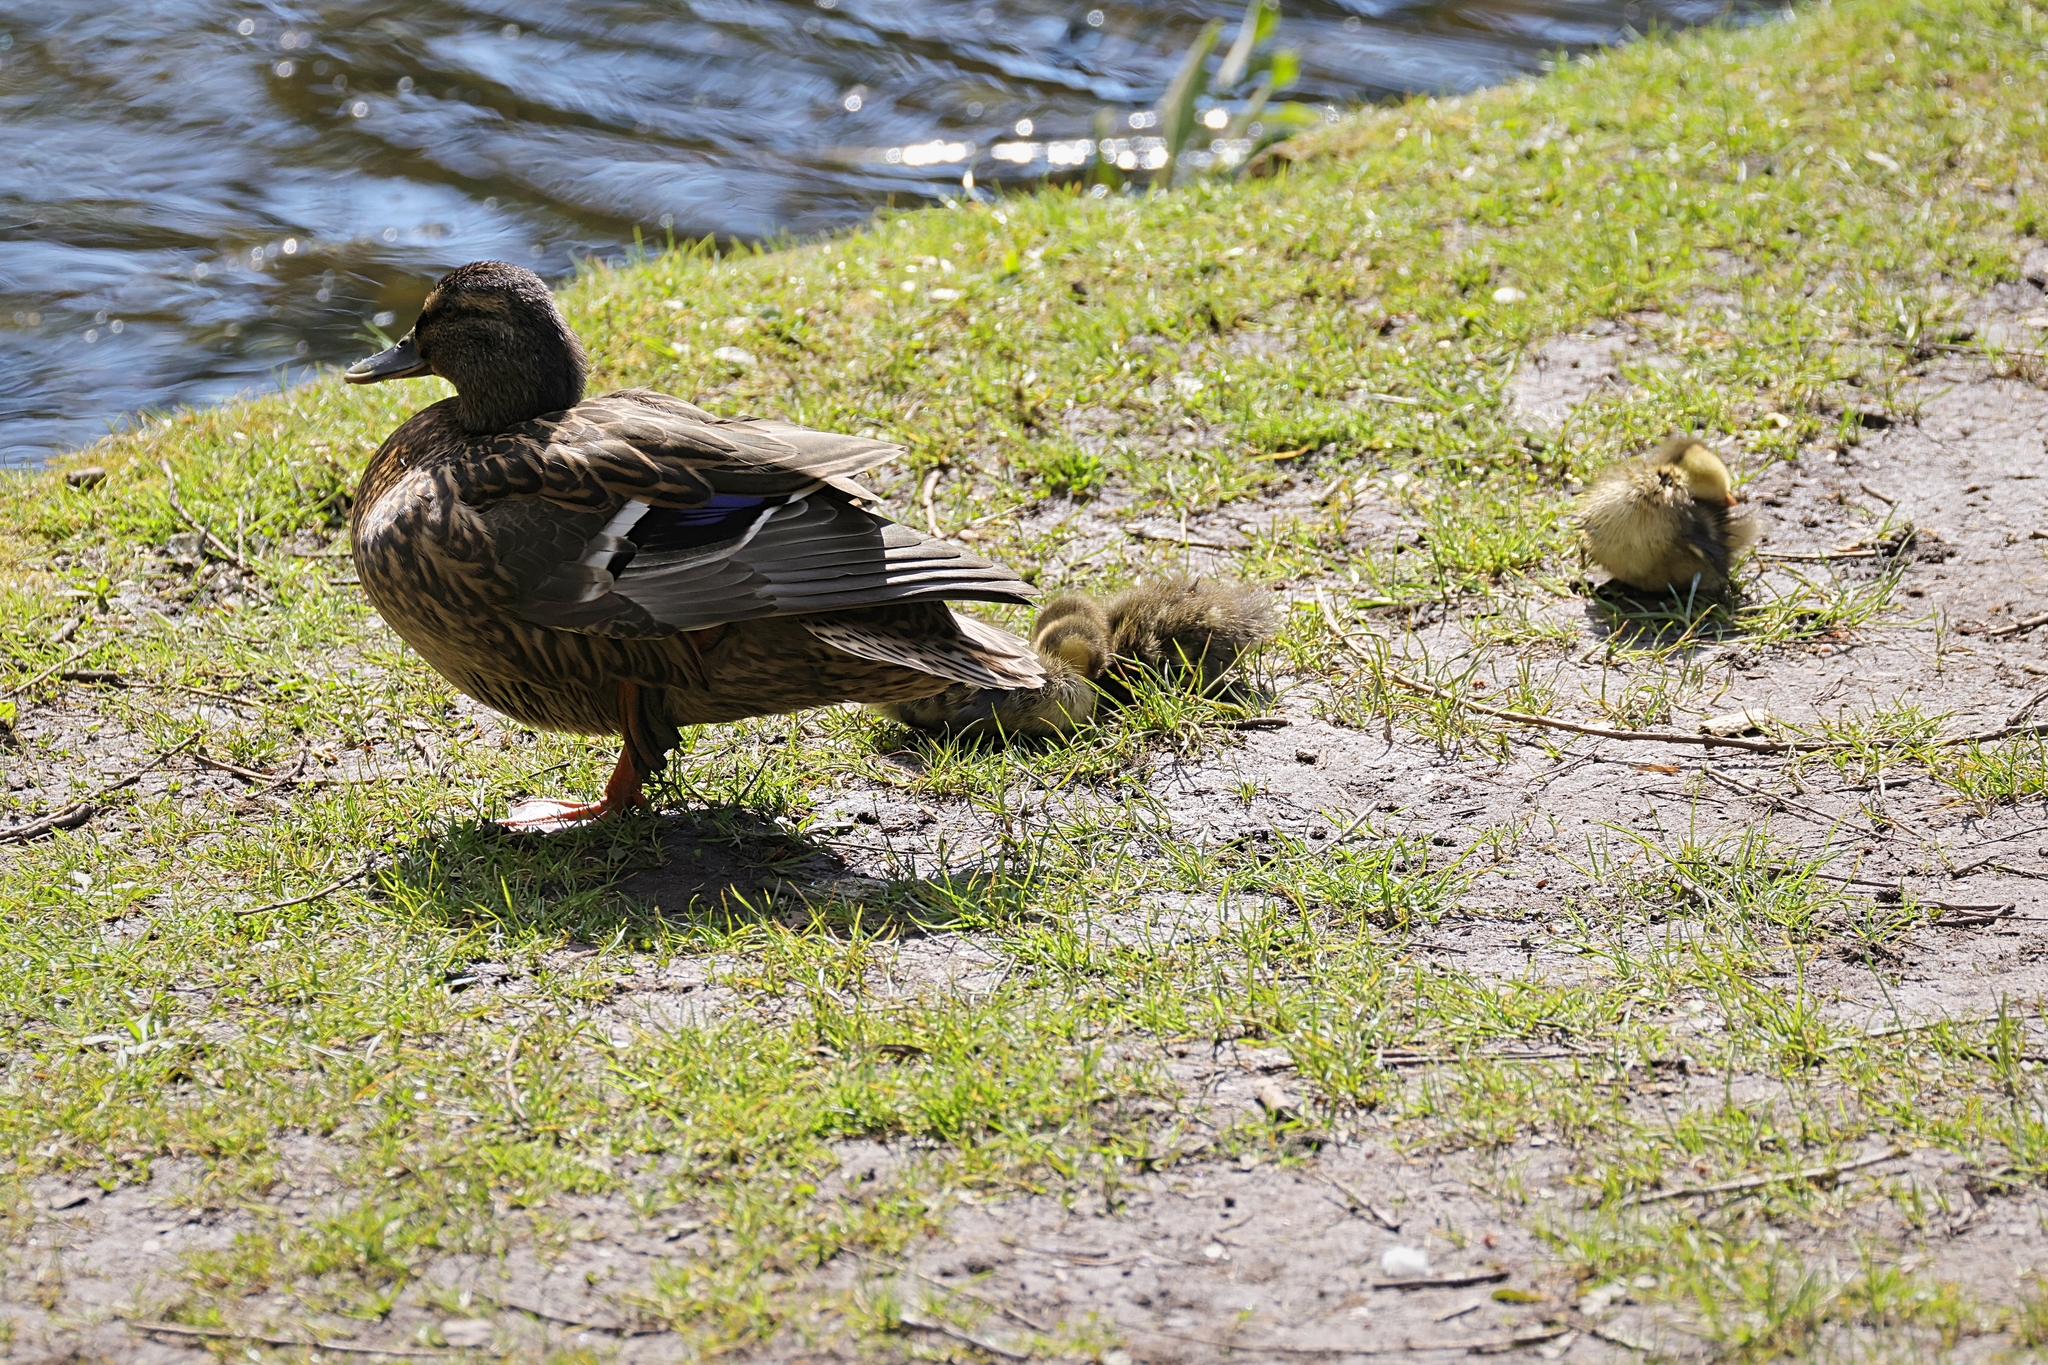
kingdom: Animalia
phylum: Chordata
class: Aves
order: Anseriformes
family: Anatidae
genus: Anas
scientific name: Anas platyrhynchos
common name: Mallard
